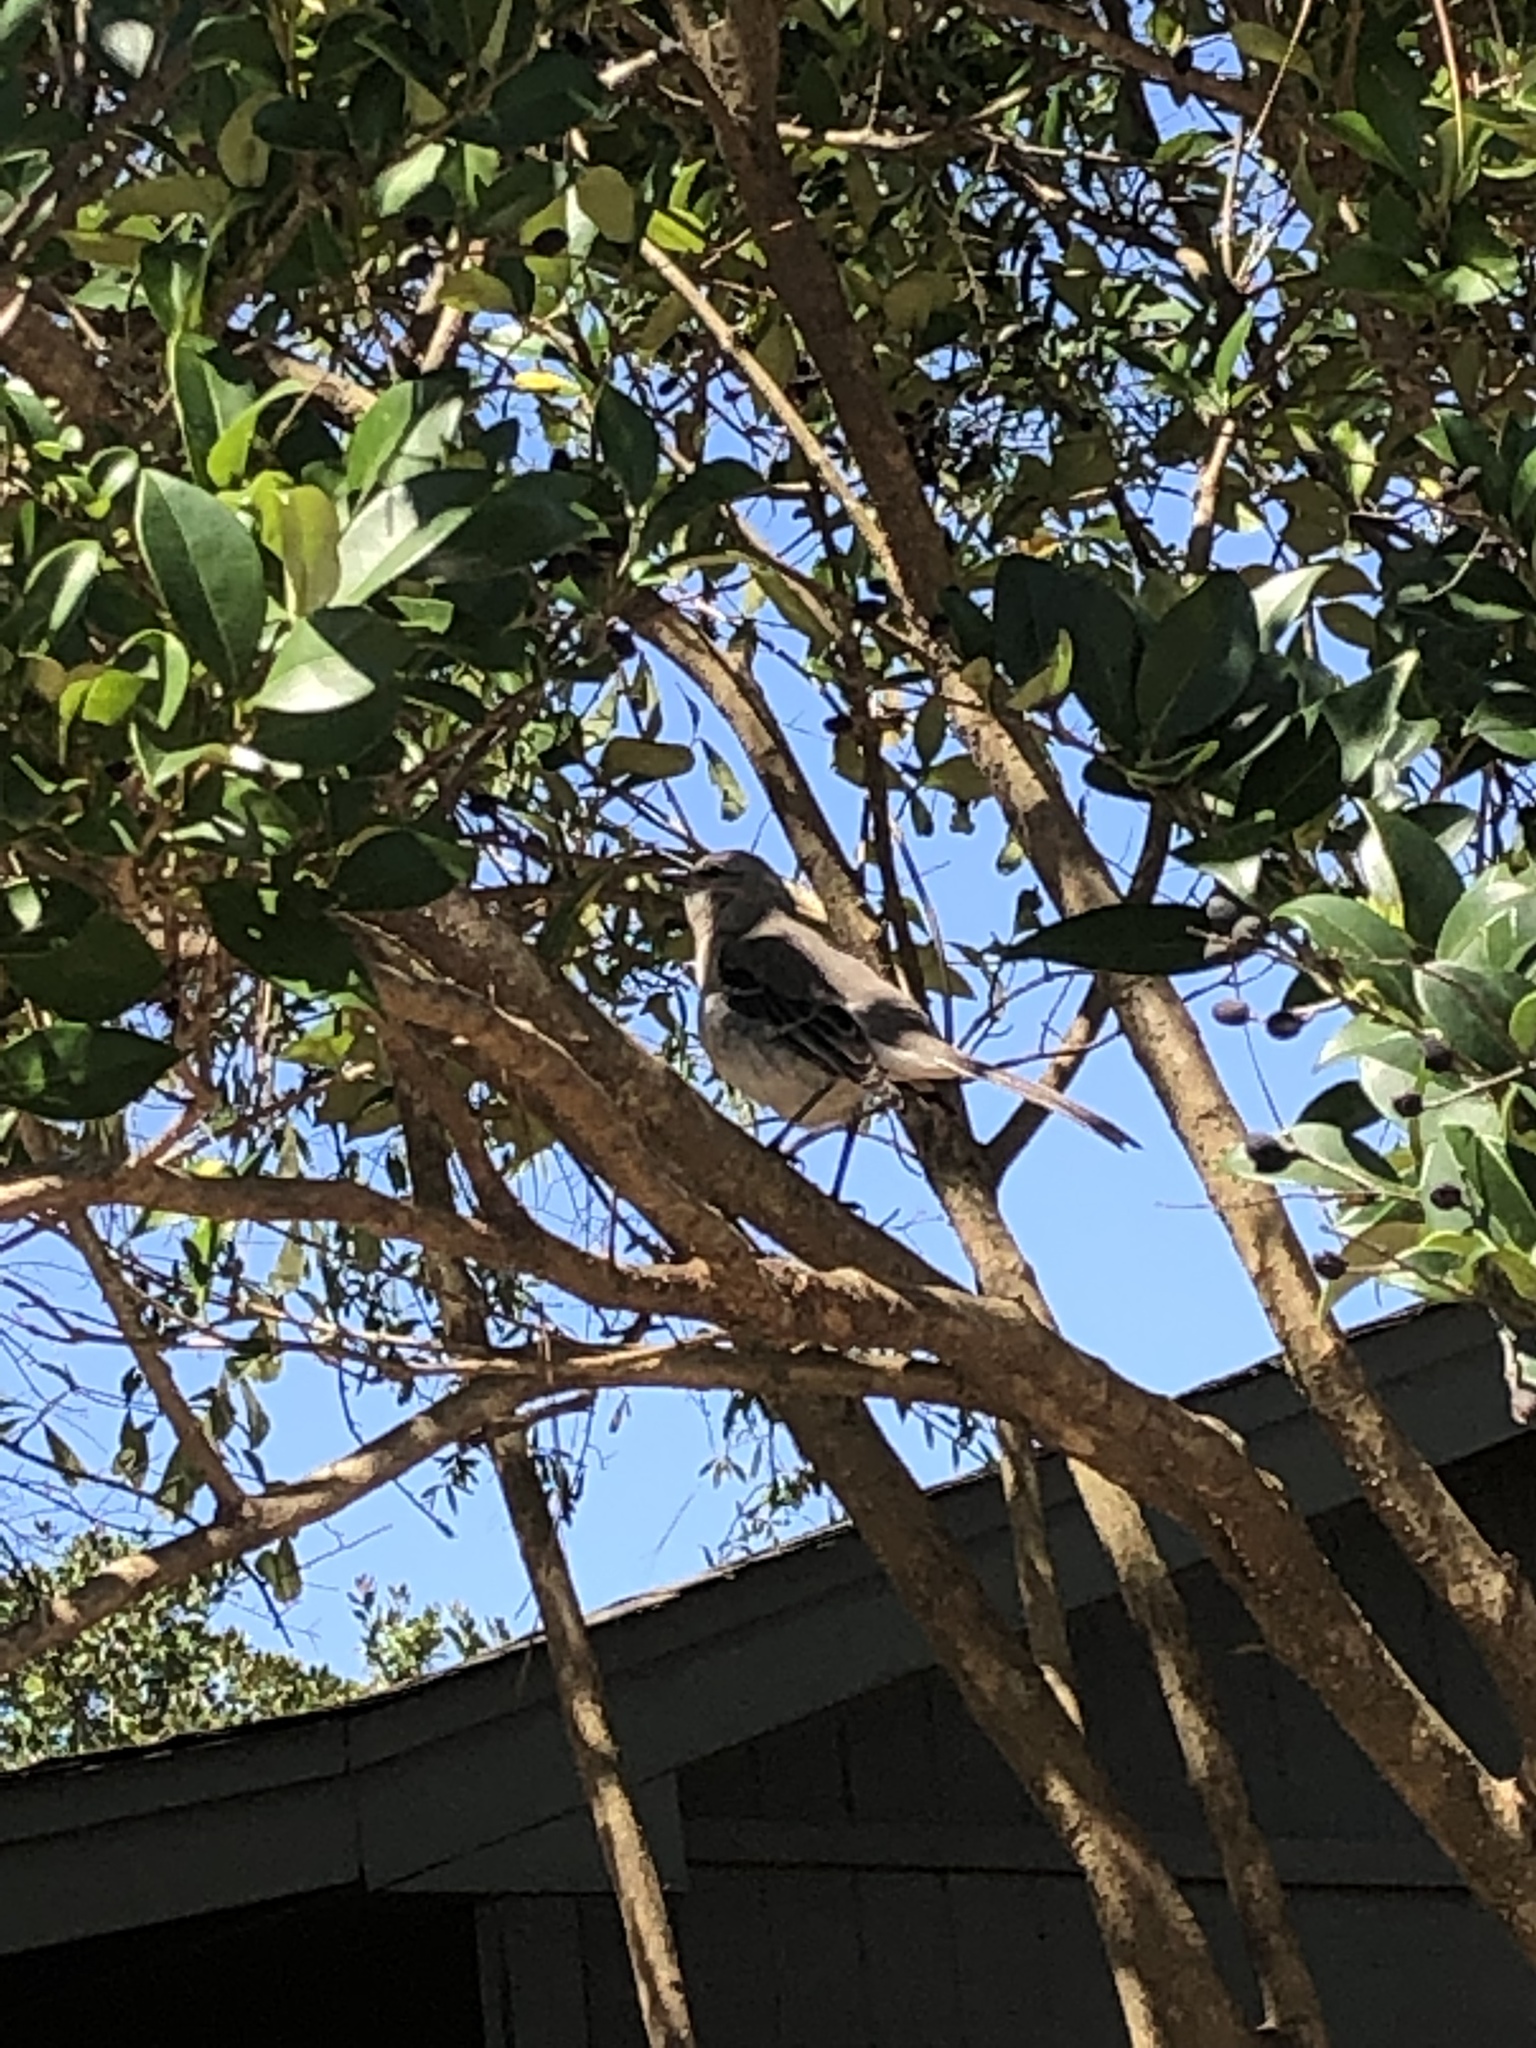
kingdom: Animalia
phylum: Chordata
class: Aves
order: Passeriformes
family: Mimidae
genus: Mimus
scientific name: Mimus polyglottos
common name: Northern mockingbird
